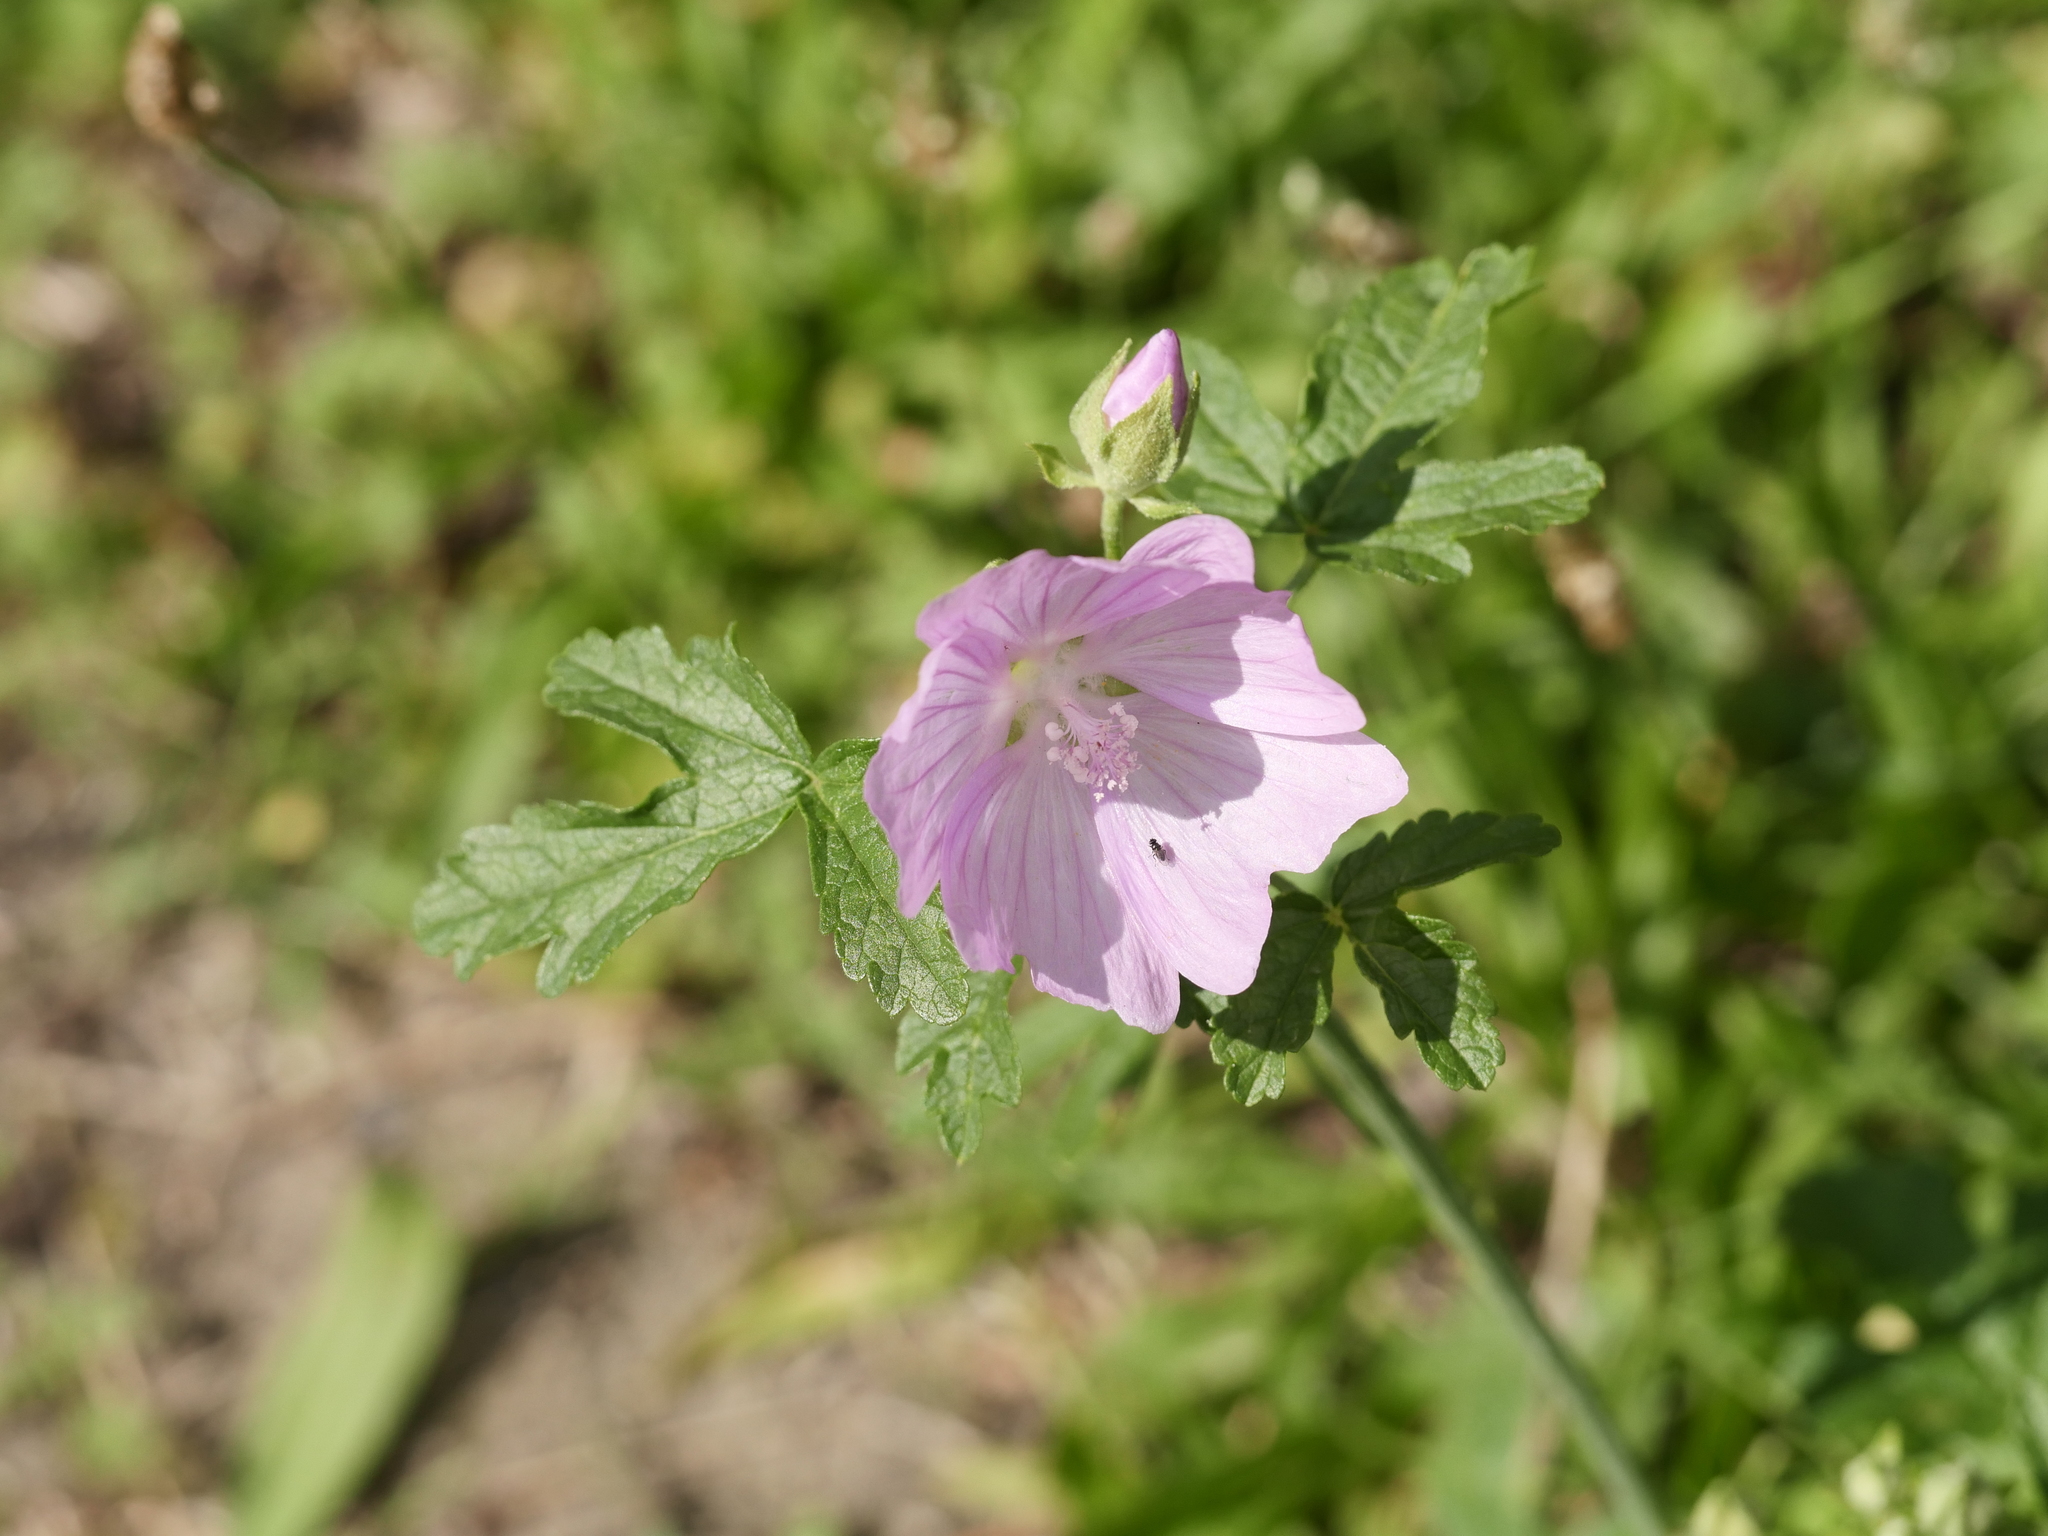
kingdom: Plantae
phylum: Tracheophyta
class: Magnoliopsida
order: Malvales
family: Malvaceae
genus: Malva
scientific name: Malva alcea
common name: Greater musk-mallow
